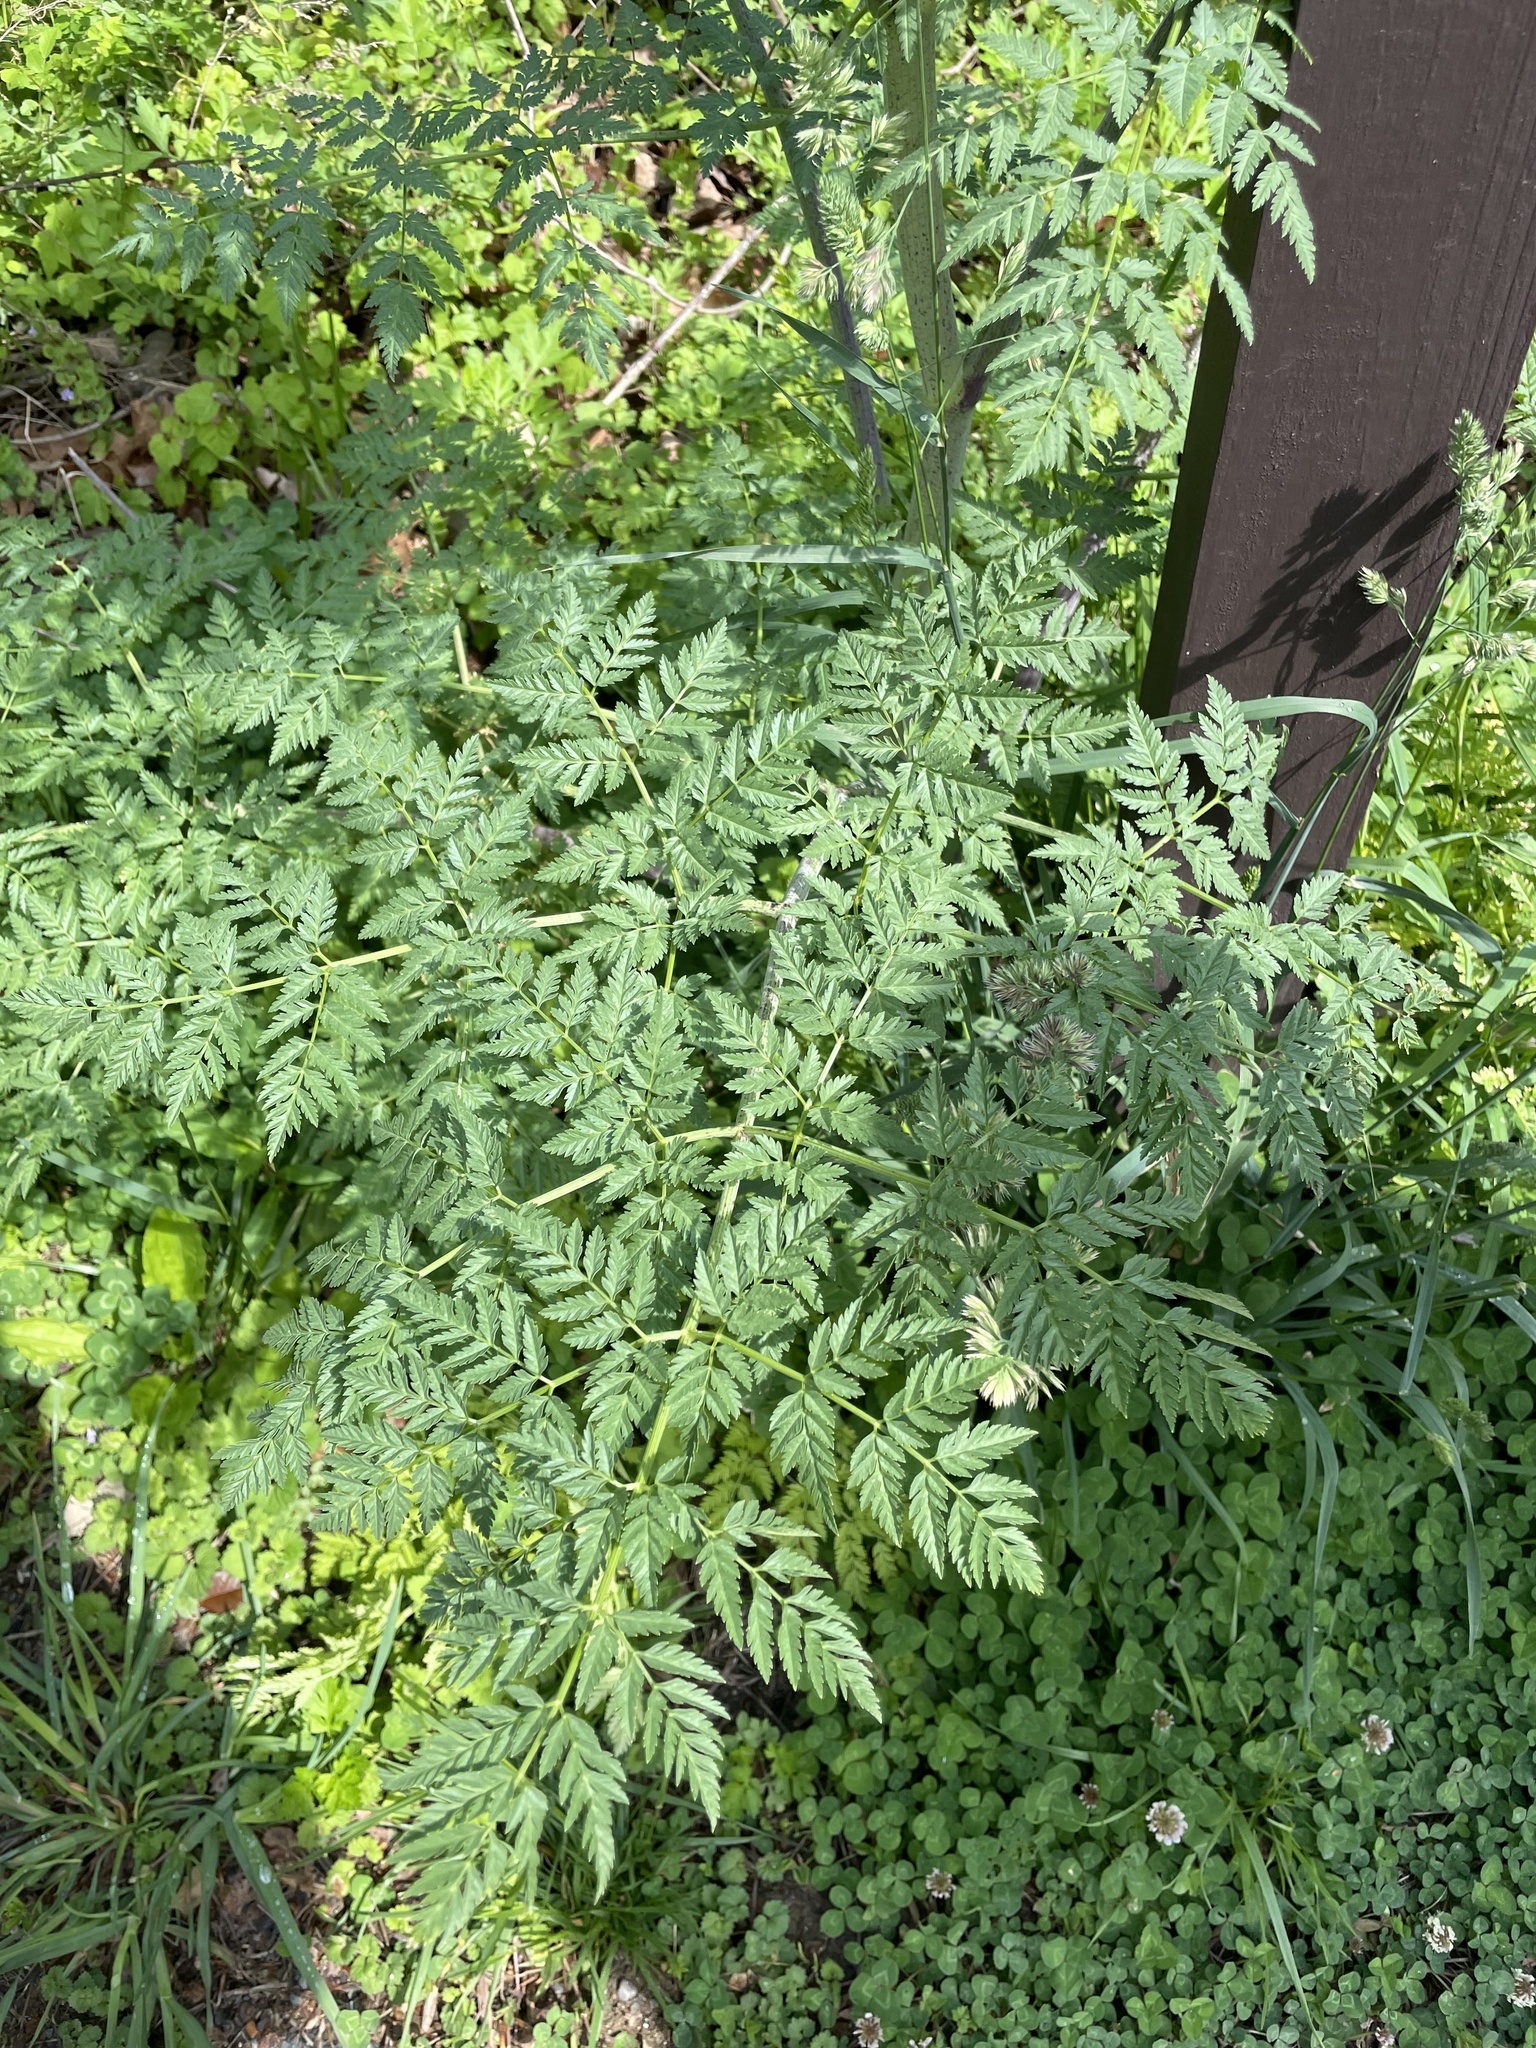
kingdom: Plantae
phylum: Tracheophyta
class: Magnoliopsida
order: Apiales
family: Apiaceae
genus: Conium
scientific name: Conium maculatum
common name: Hemlock
